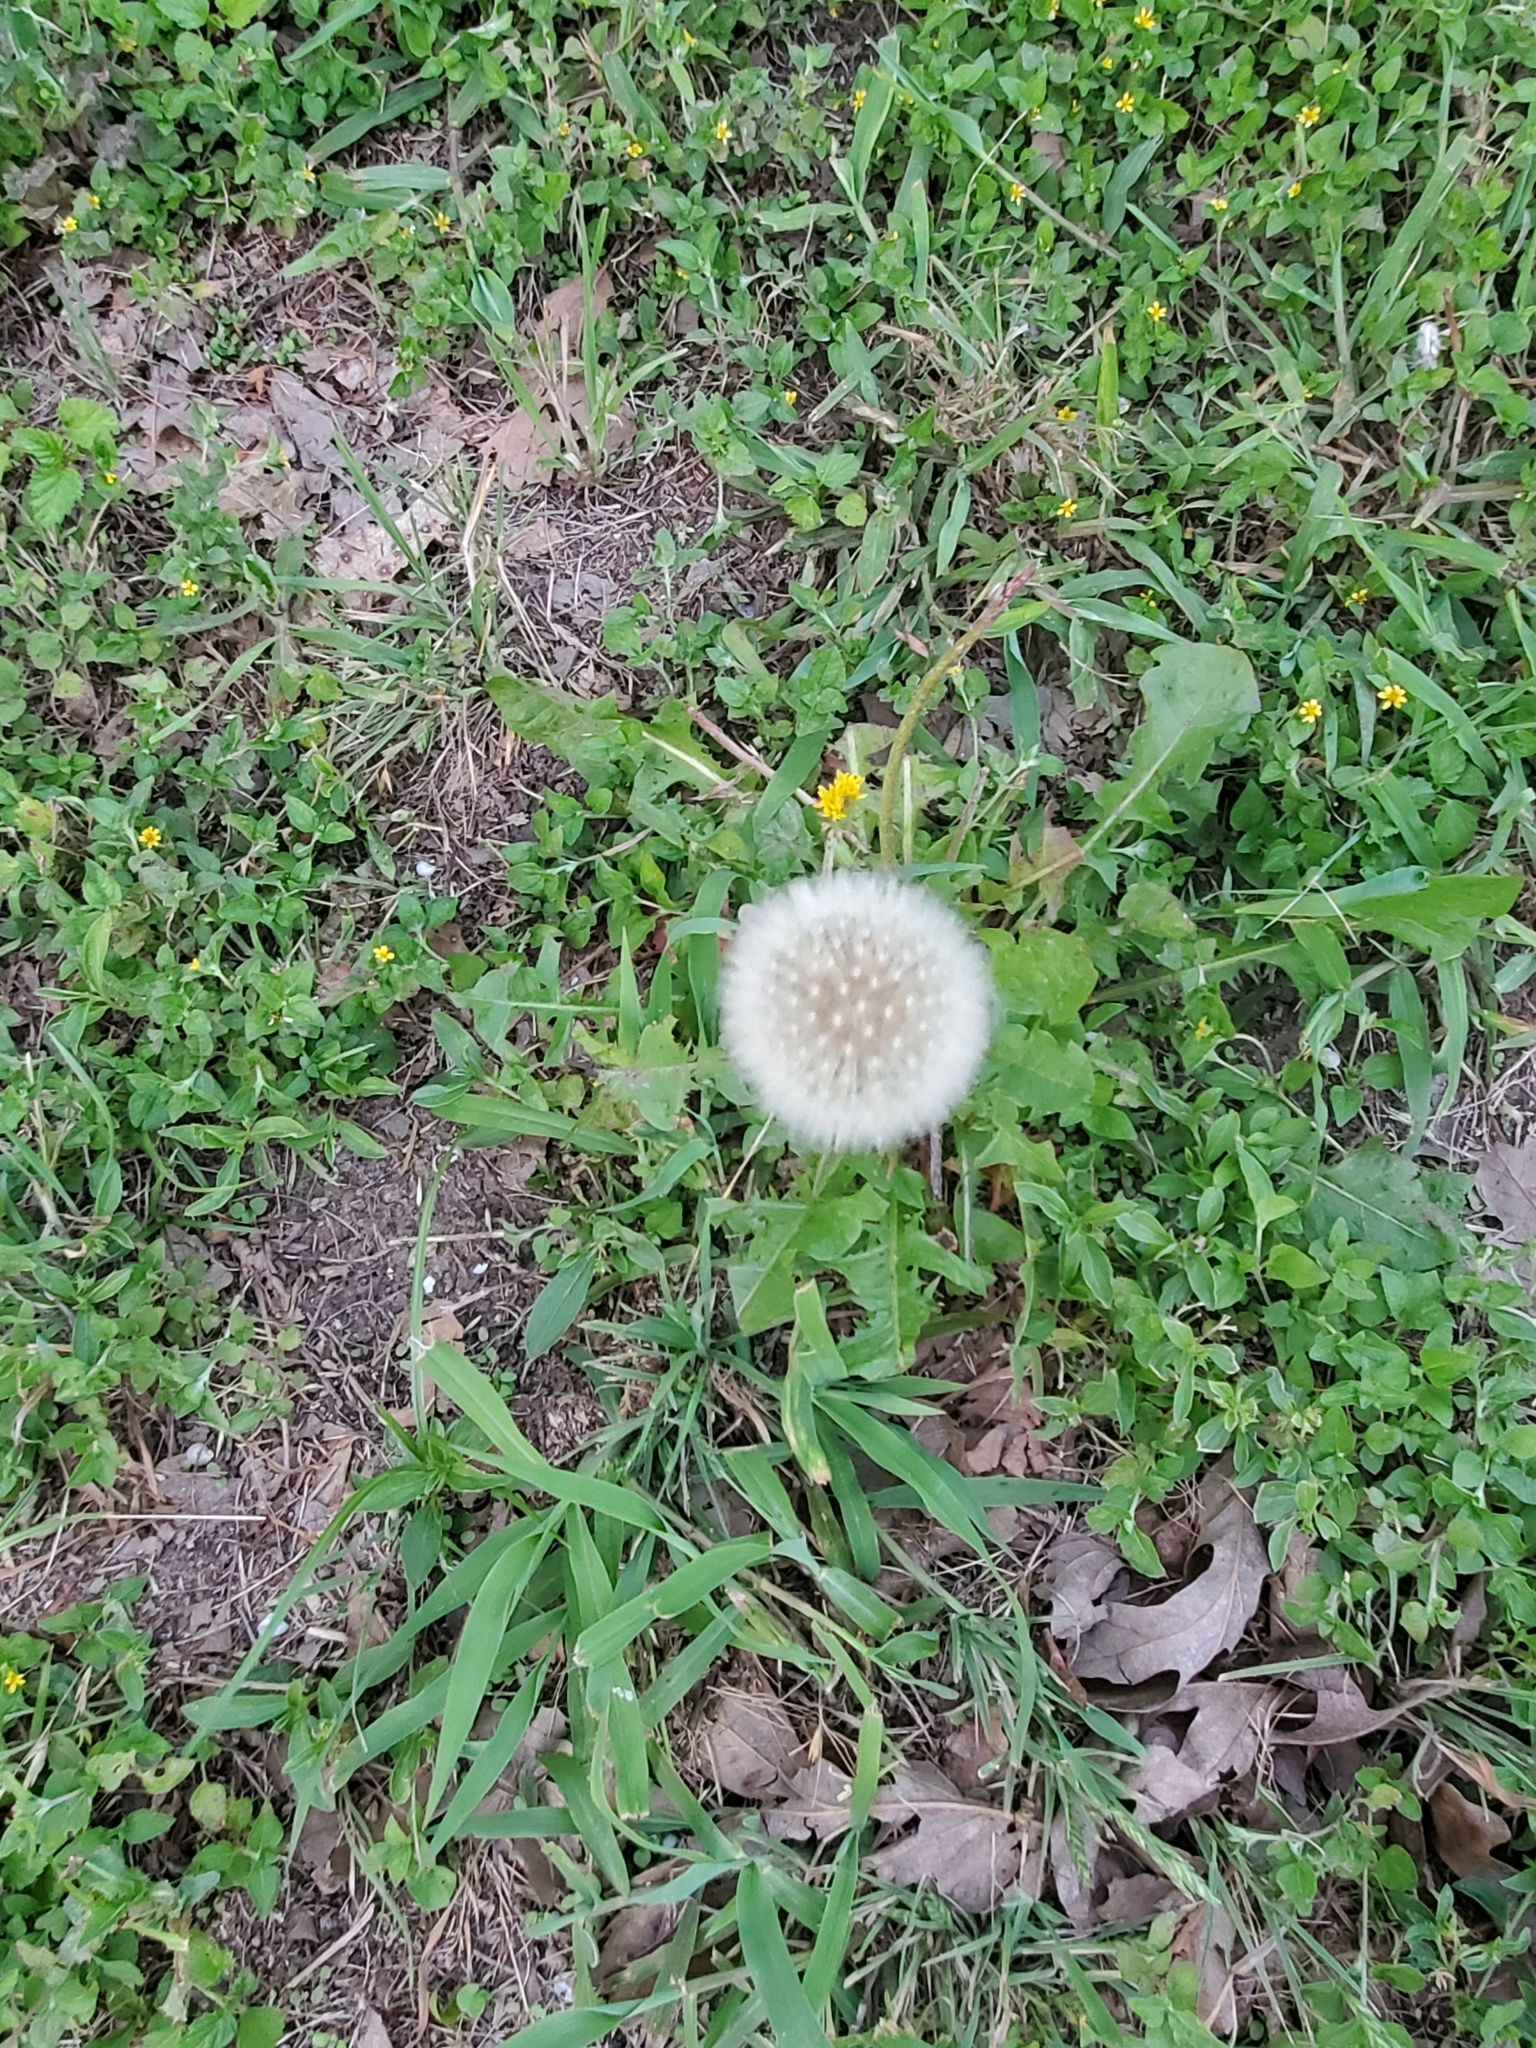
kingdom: Plantae
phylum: Tracheophyta
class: Magnoliopsida
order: Asterales
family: Asteraceae
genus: Taraxacum
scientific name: Taraxacum officinale
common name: Common dandelion
